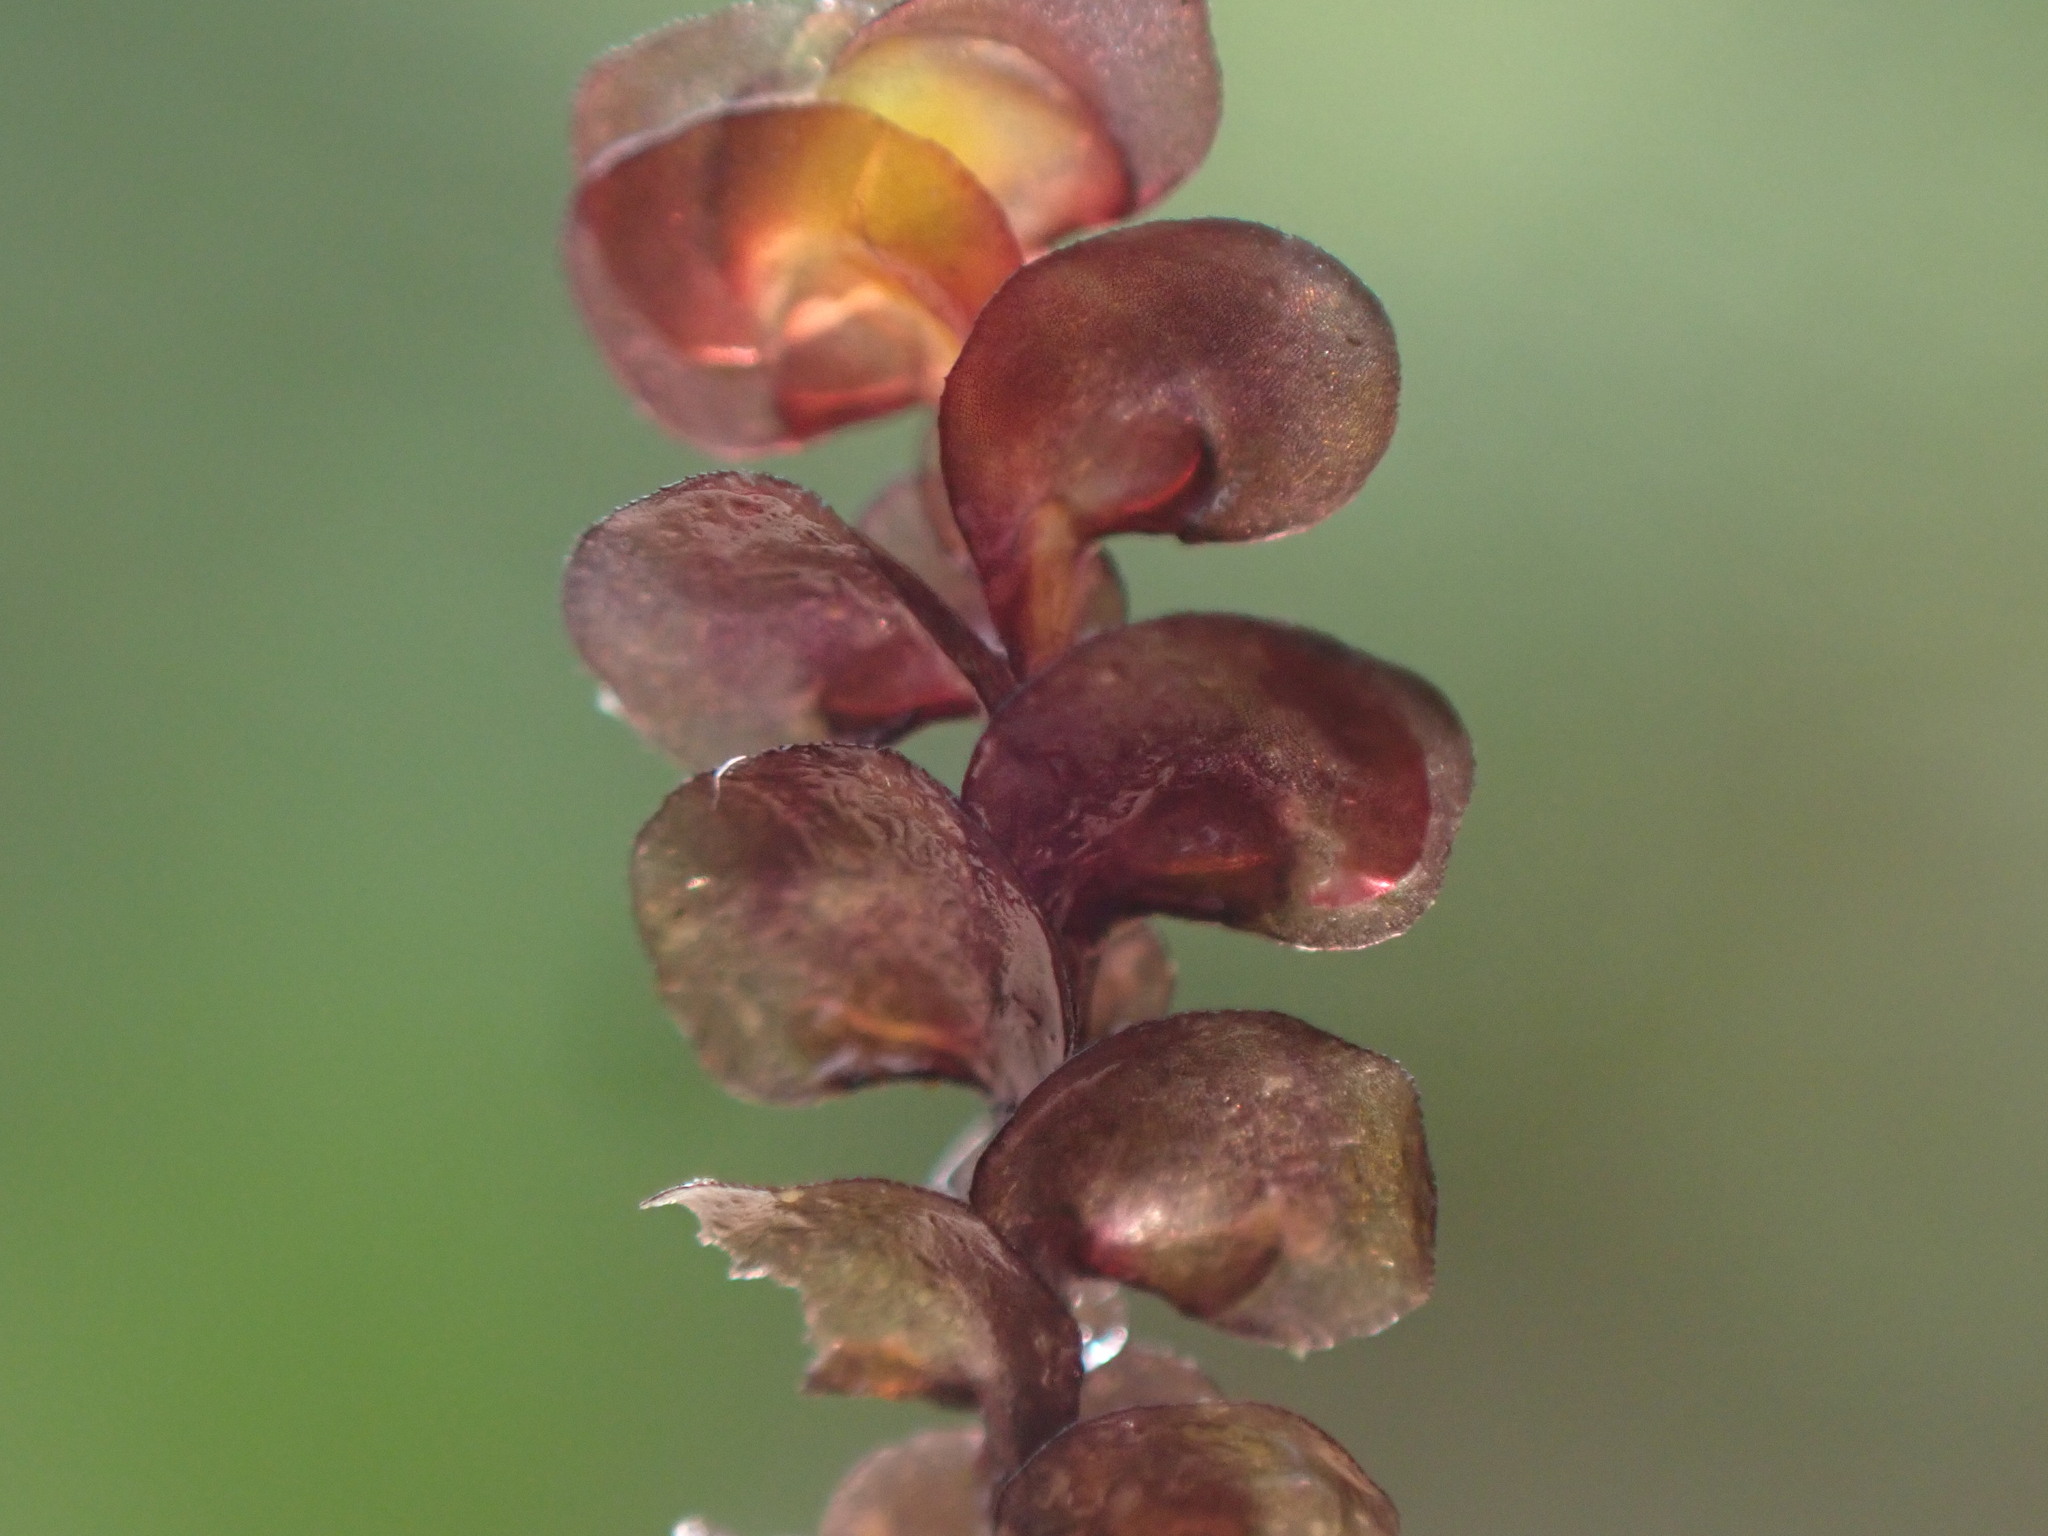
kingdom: Plantae
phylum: Marchantiophyta
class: Jungermanniopsida
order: Jungermanniales
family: Scapaniaceae
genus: Scapania
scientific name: Scapania undulata
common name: Water earwort
